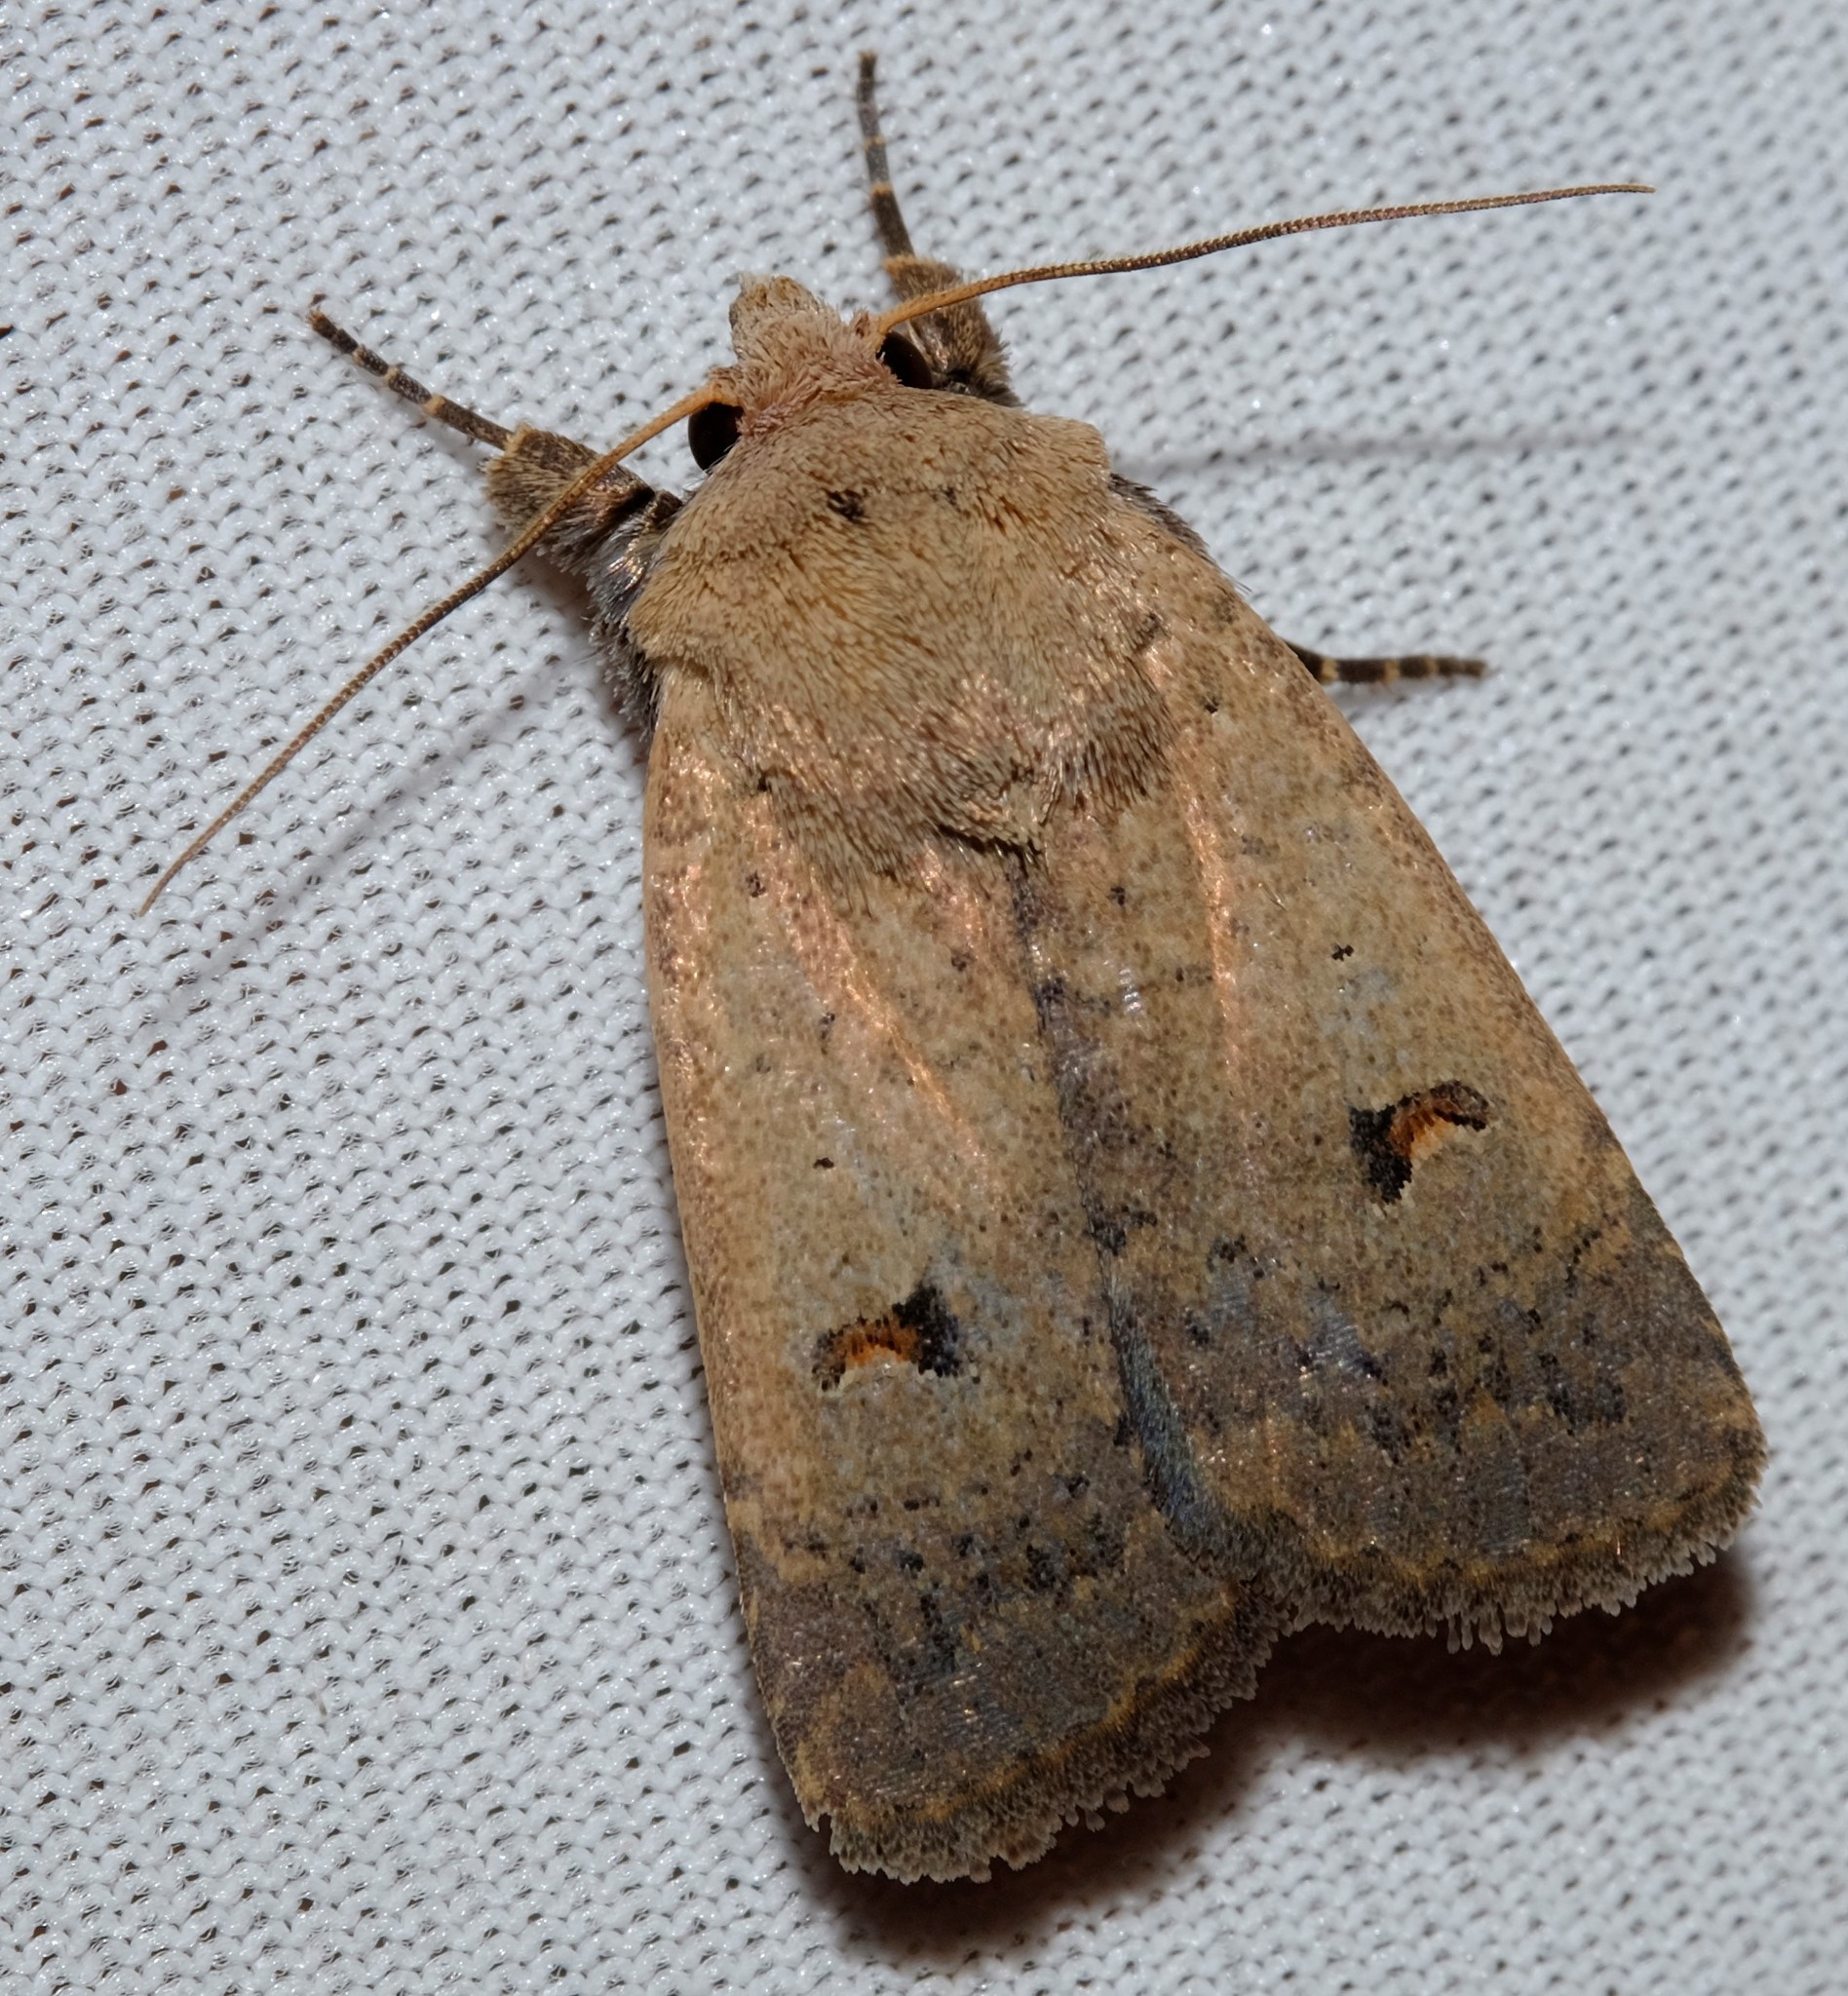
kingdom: Animalia
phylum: Arthropoda
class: Insecta
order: Lepidoptera
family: Noctuidae
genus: Proteuxoa
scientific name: Proteuxoa hypochalchis
